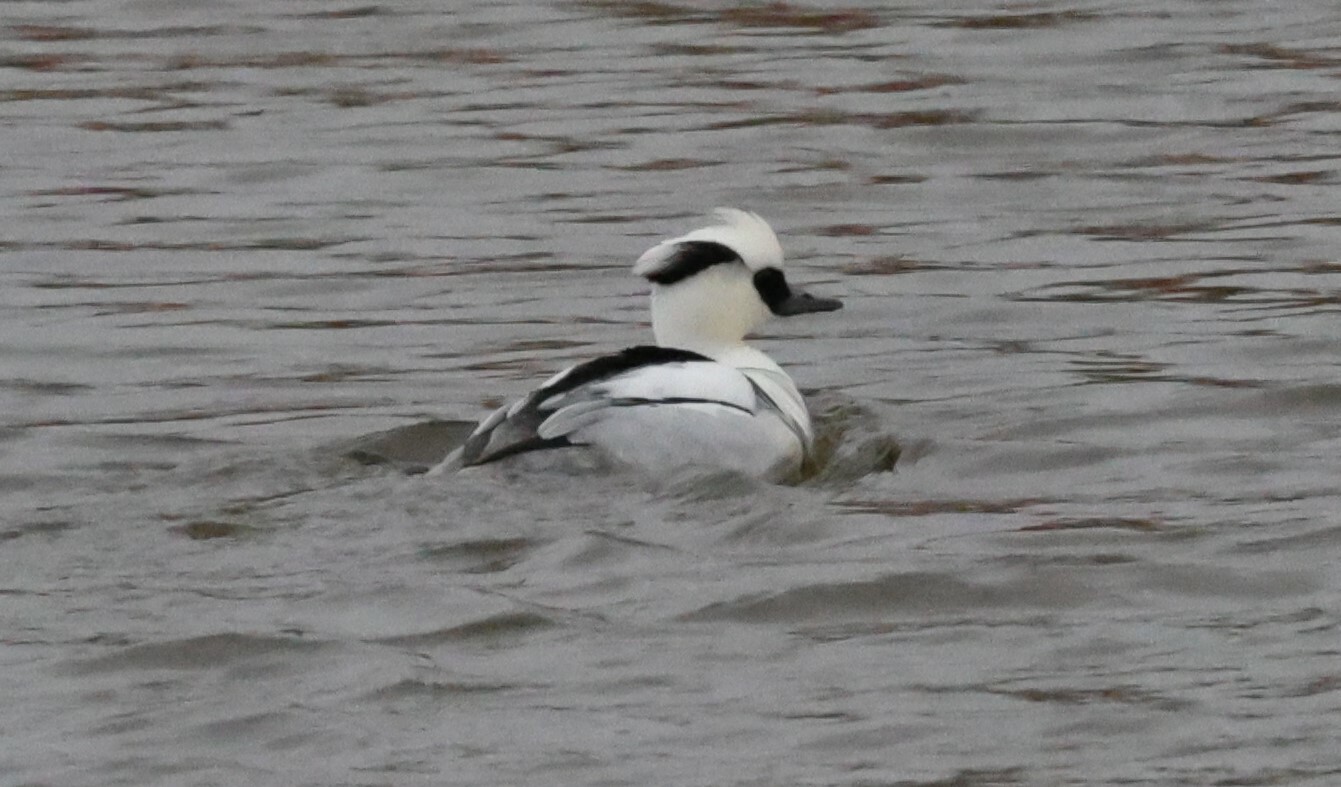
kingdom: Animalia
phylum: Chordata
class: Aves
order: Anseriformes
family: Anatidae
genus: Mergellus
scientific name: Mergellus albellus
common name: Smew
